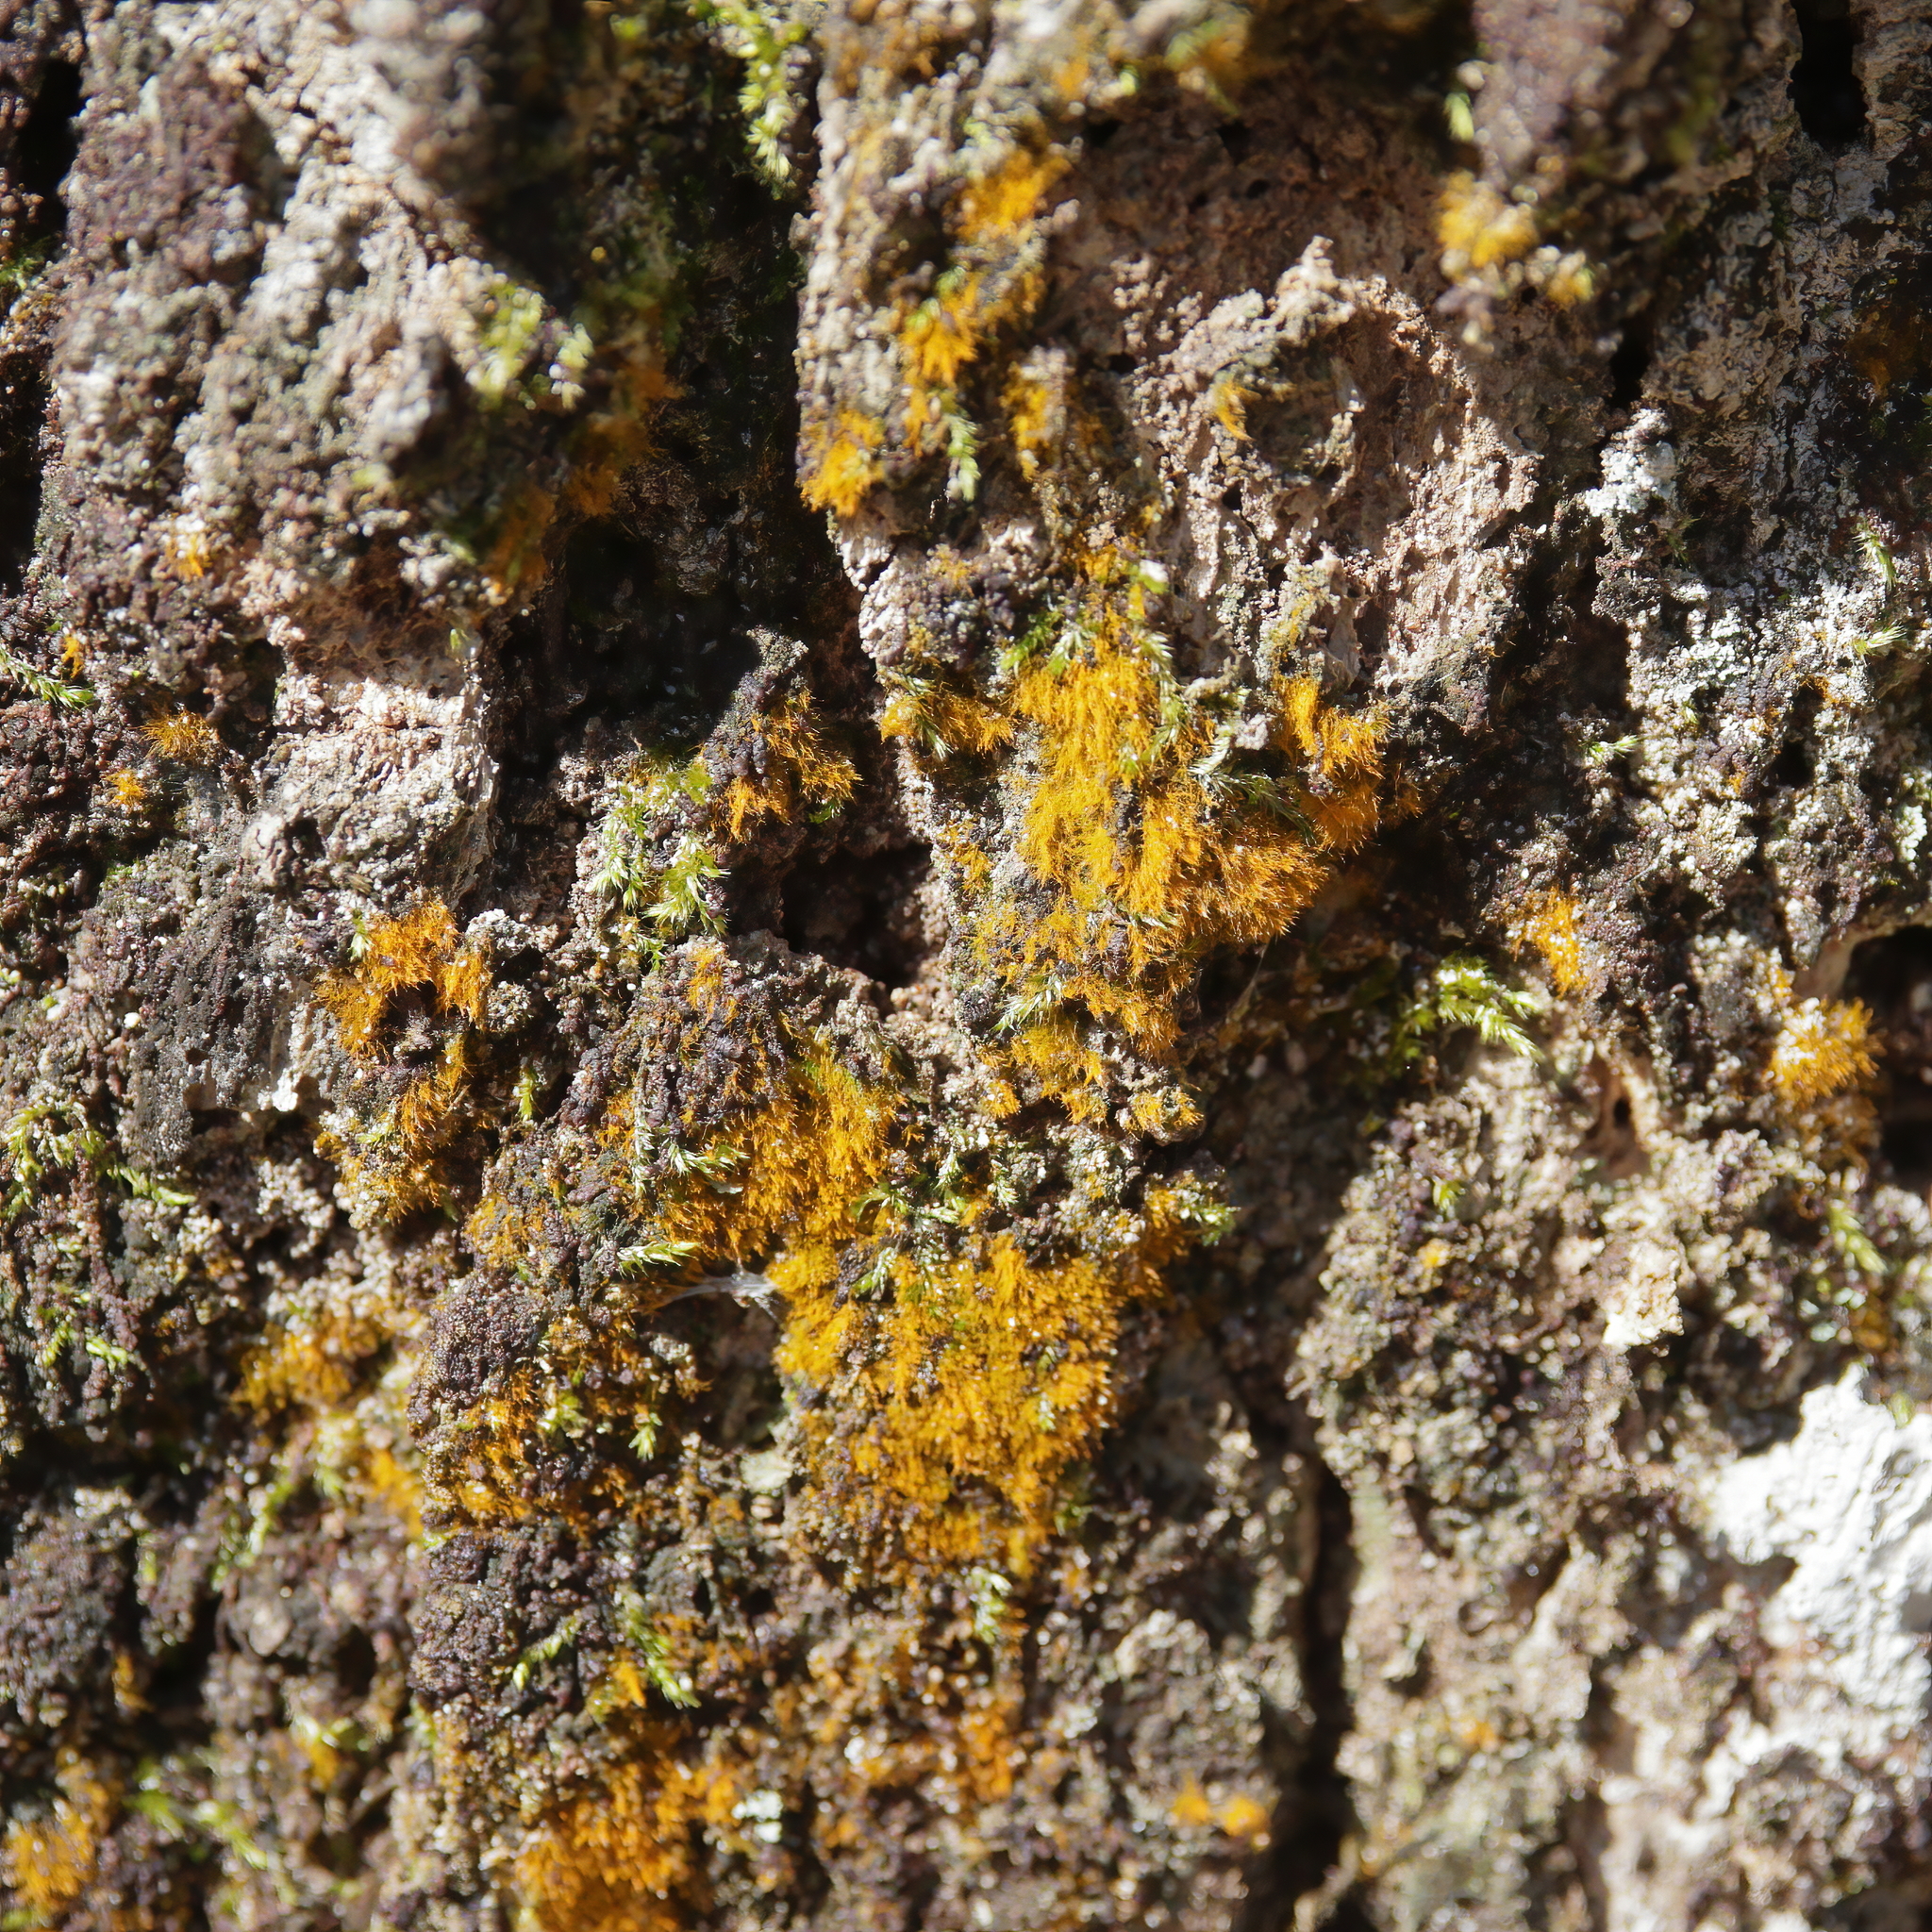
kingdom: Plantae
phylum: Chlorophyta
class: Ulvophyceae
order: Trentepohliales
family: Trentepohliaceae
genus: Trentepohlia
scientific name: Trentepohlia aurea
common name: Orange rock hair
